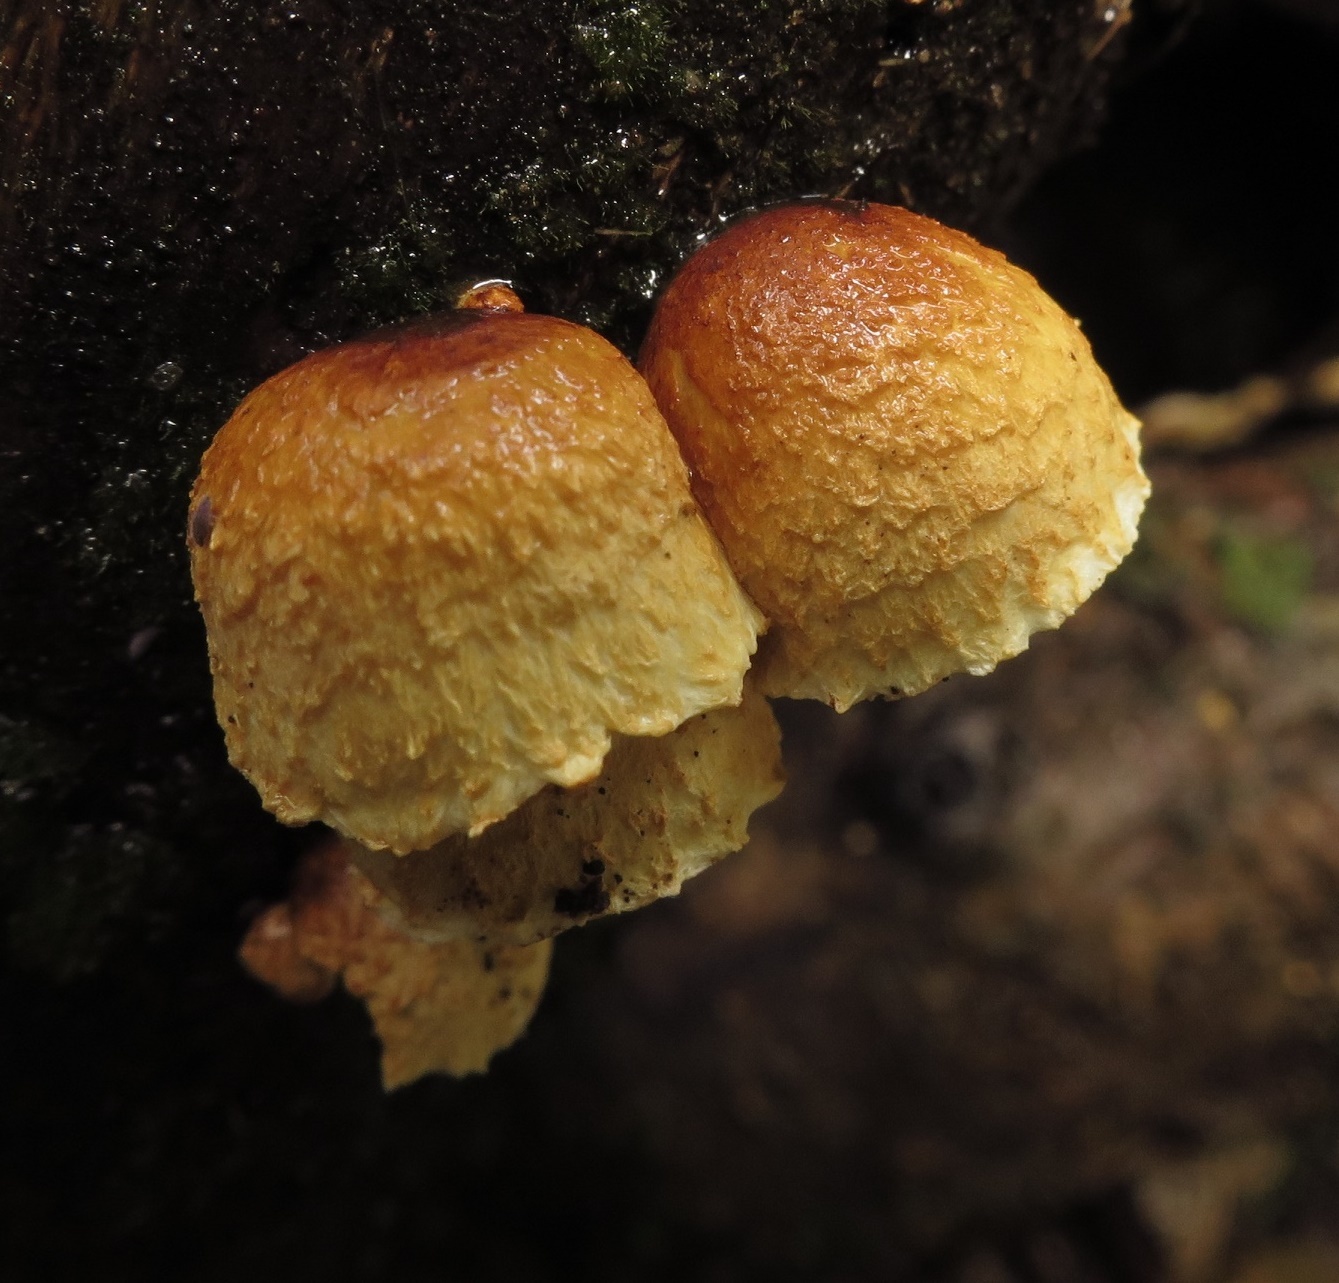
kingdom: Fungi
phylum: Basidiomycota
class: Agaricomycetes
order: Agaricales
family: Crepidotaceae
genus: Pleuroflammula
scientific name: Pleuroflammula praestans
